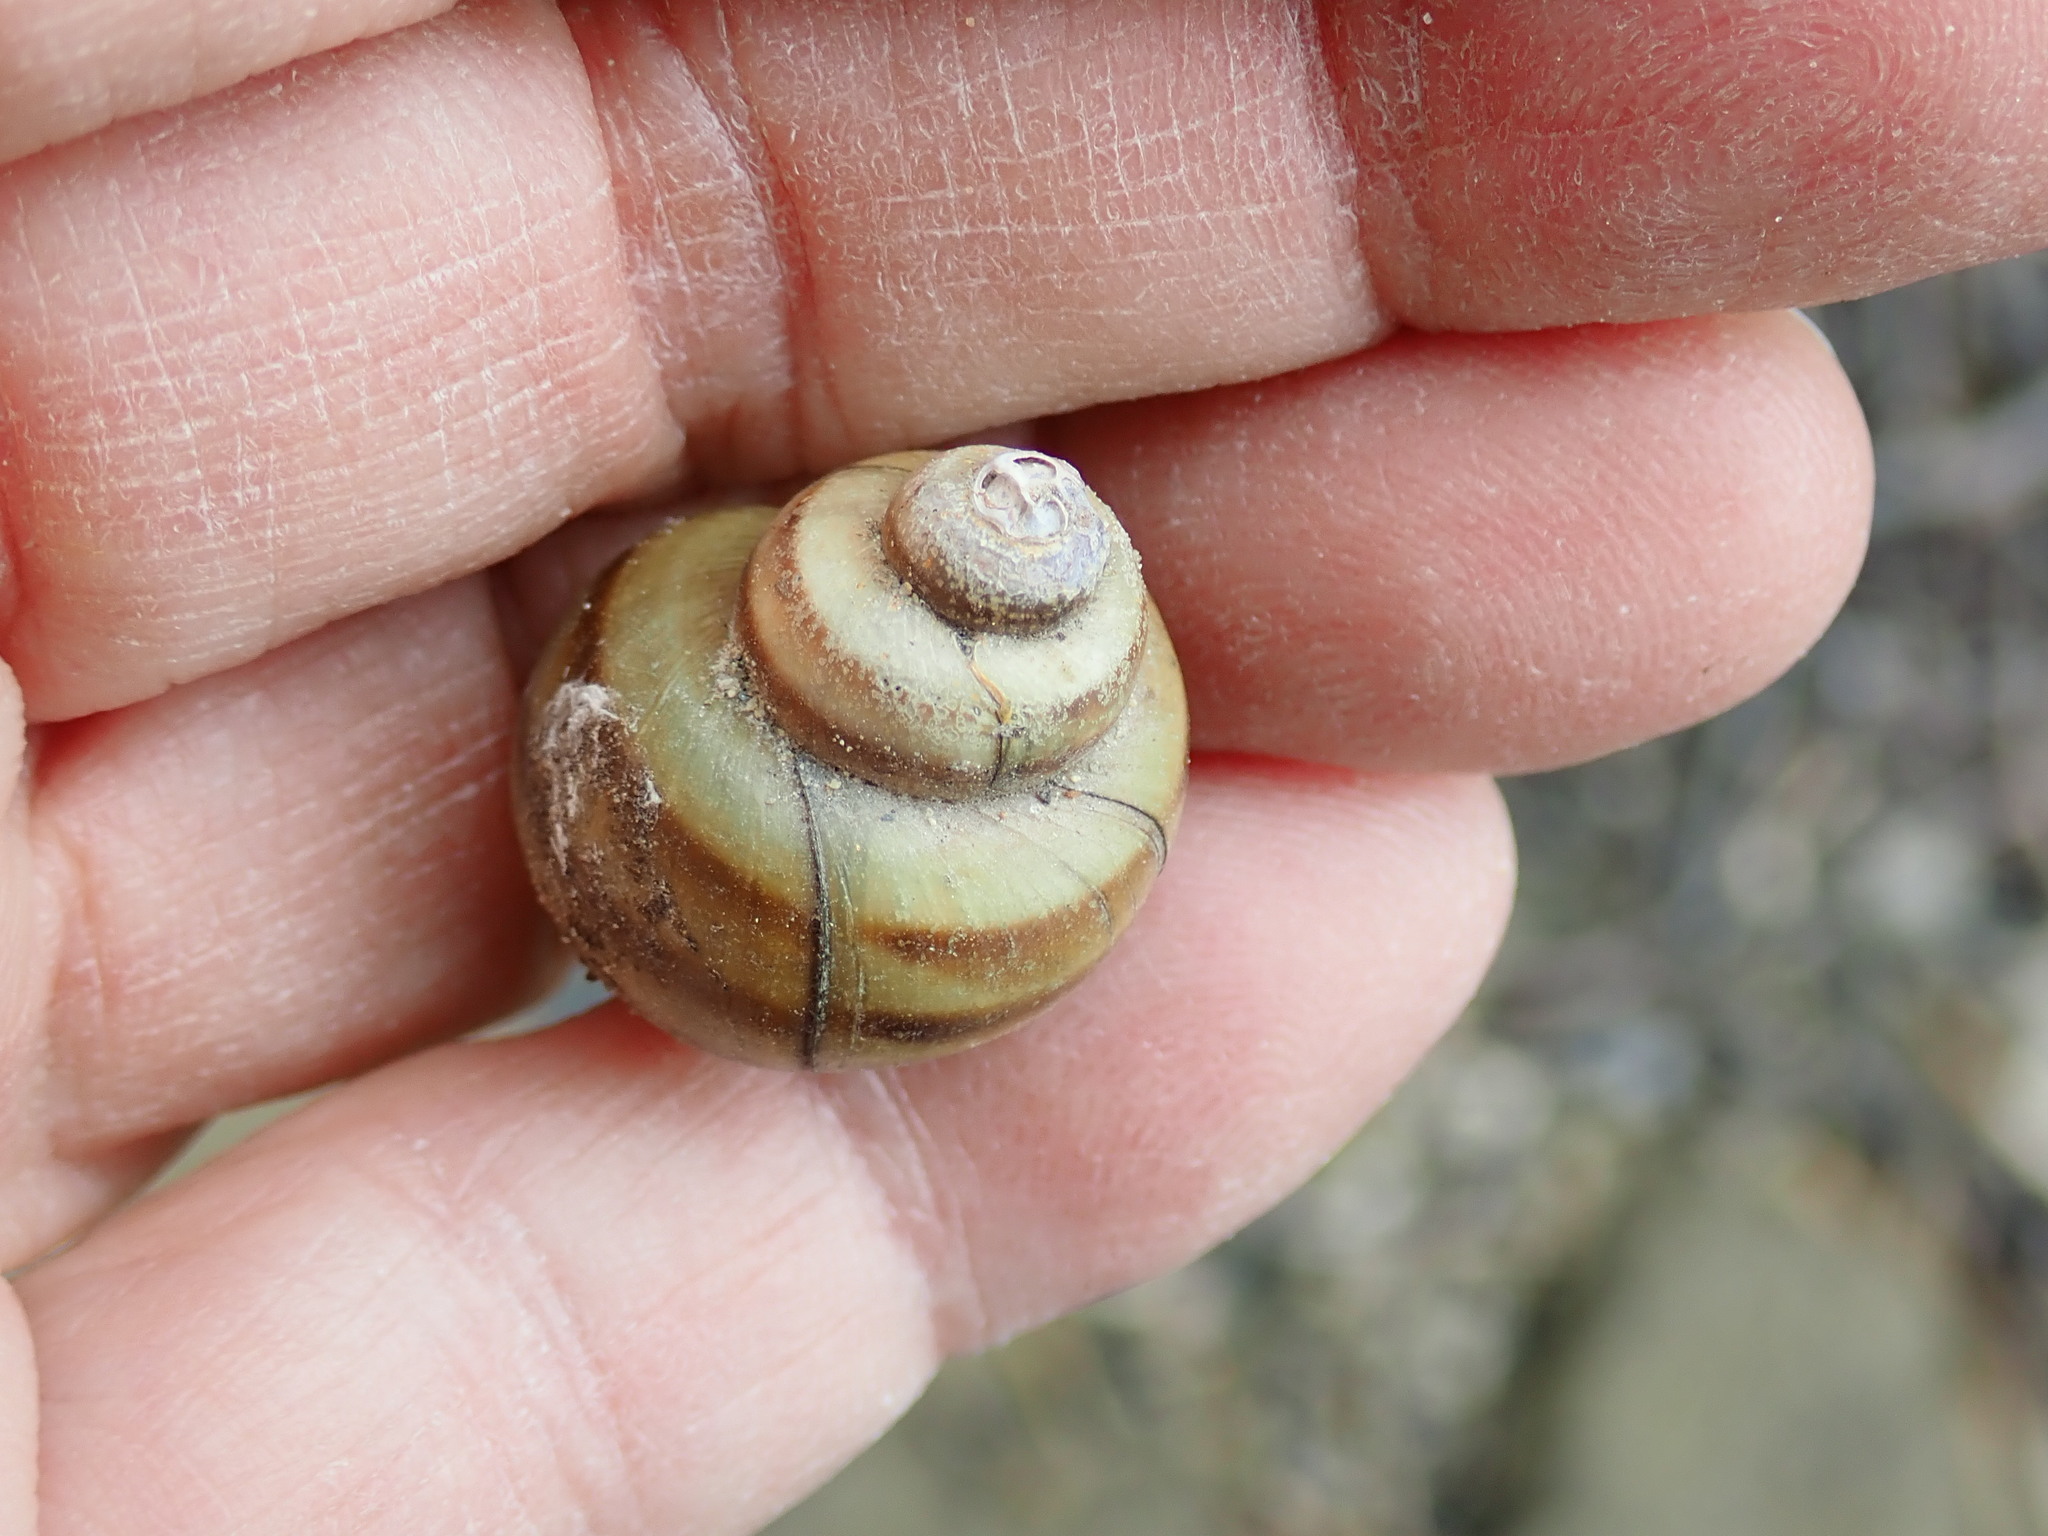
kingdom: Animalia
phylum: Mollusca
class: Gastropoda
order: Architaenioglossa
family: Viviparidae
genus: Callinina
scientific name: Callinina georgiana
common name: Banded mystery snail
